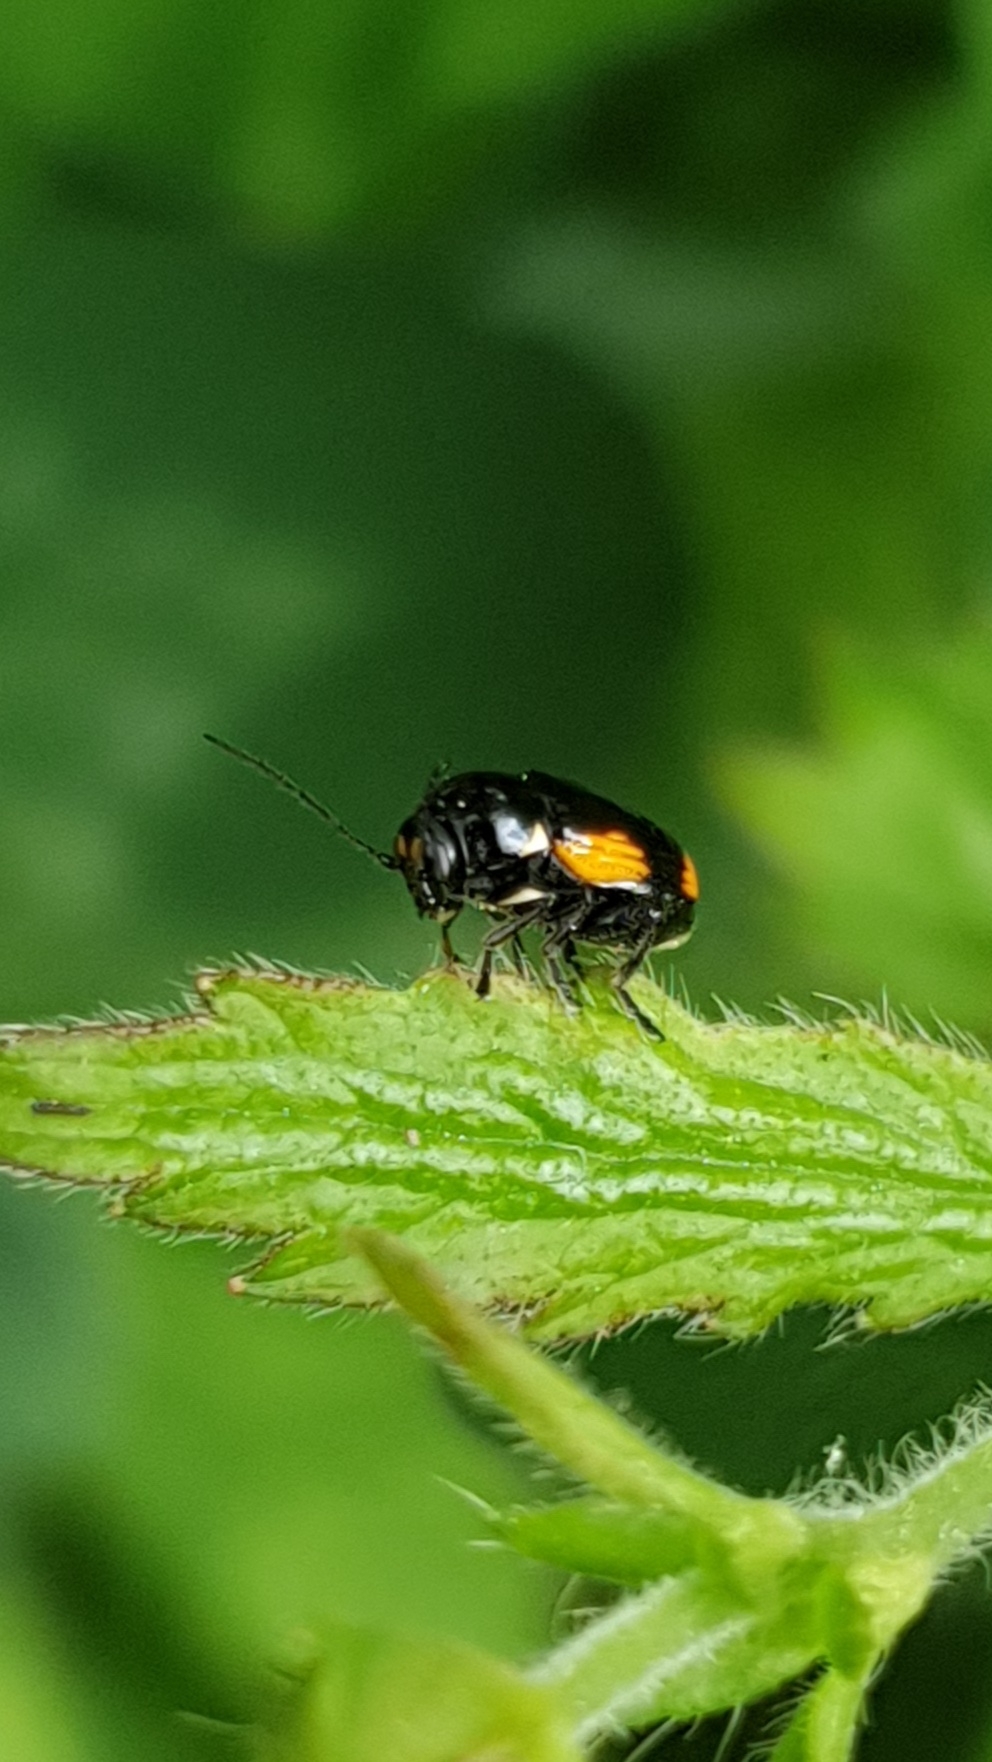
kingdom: Animalia
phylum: Arthropoda
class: Insecta
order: Coleoptera
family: Chrysomelidae
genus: Cryptocephalus
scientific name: Cryptocephalus moraei
